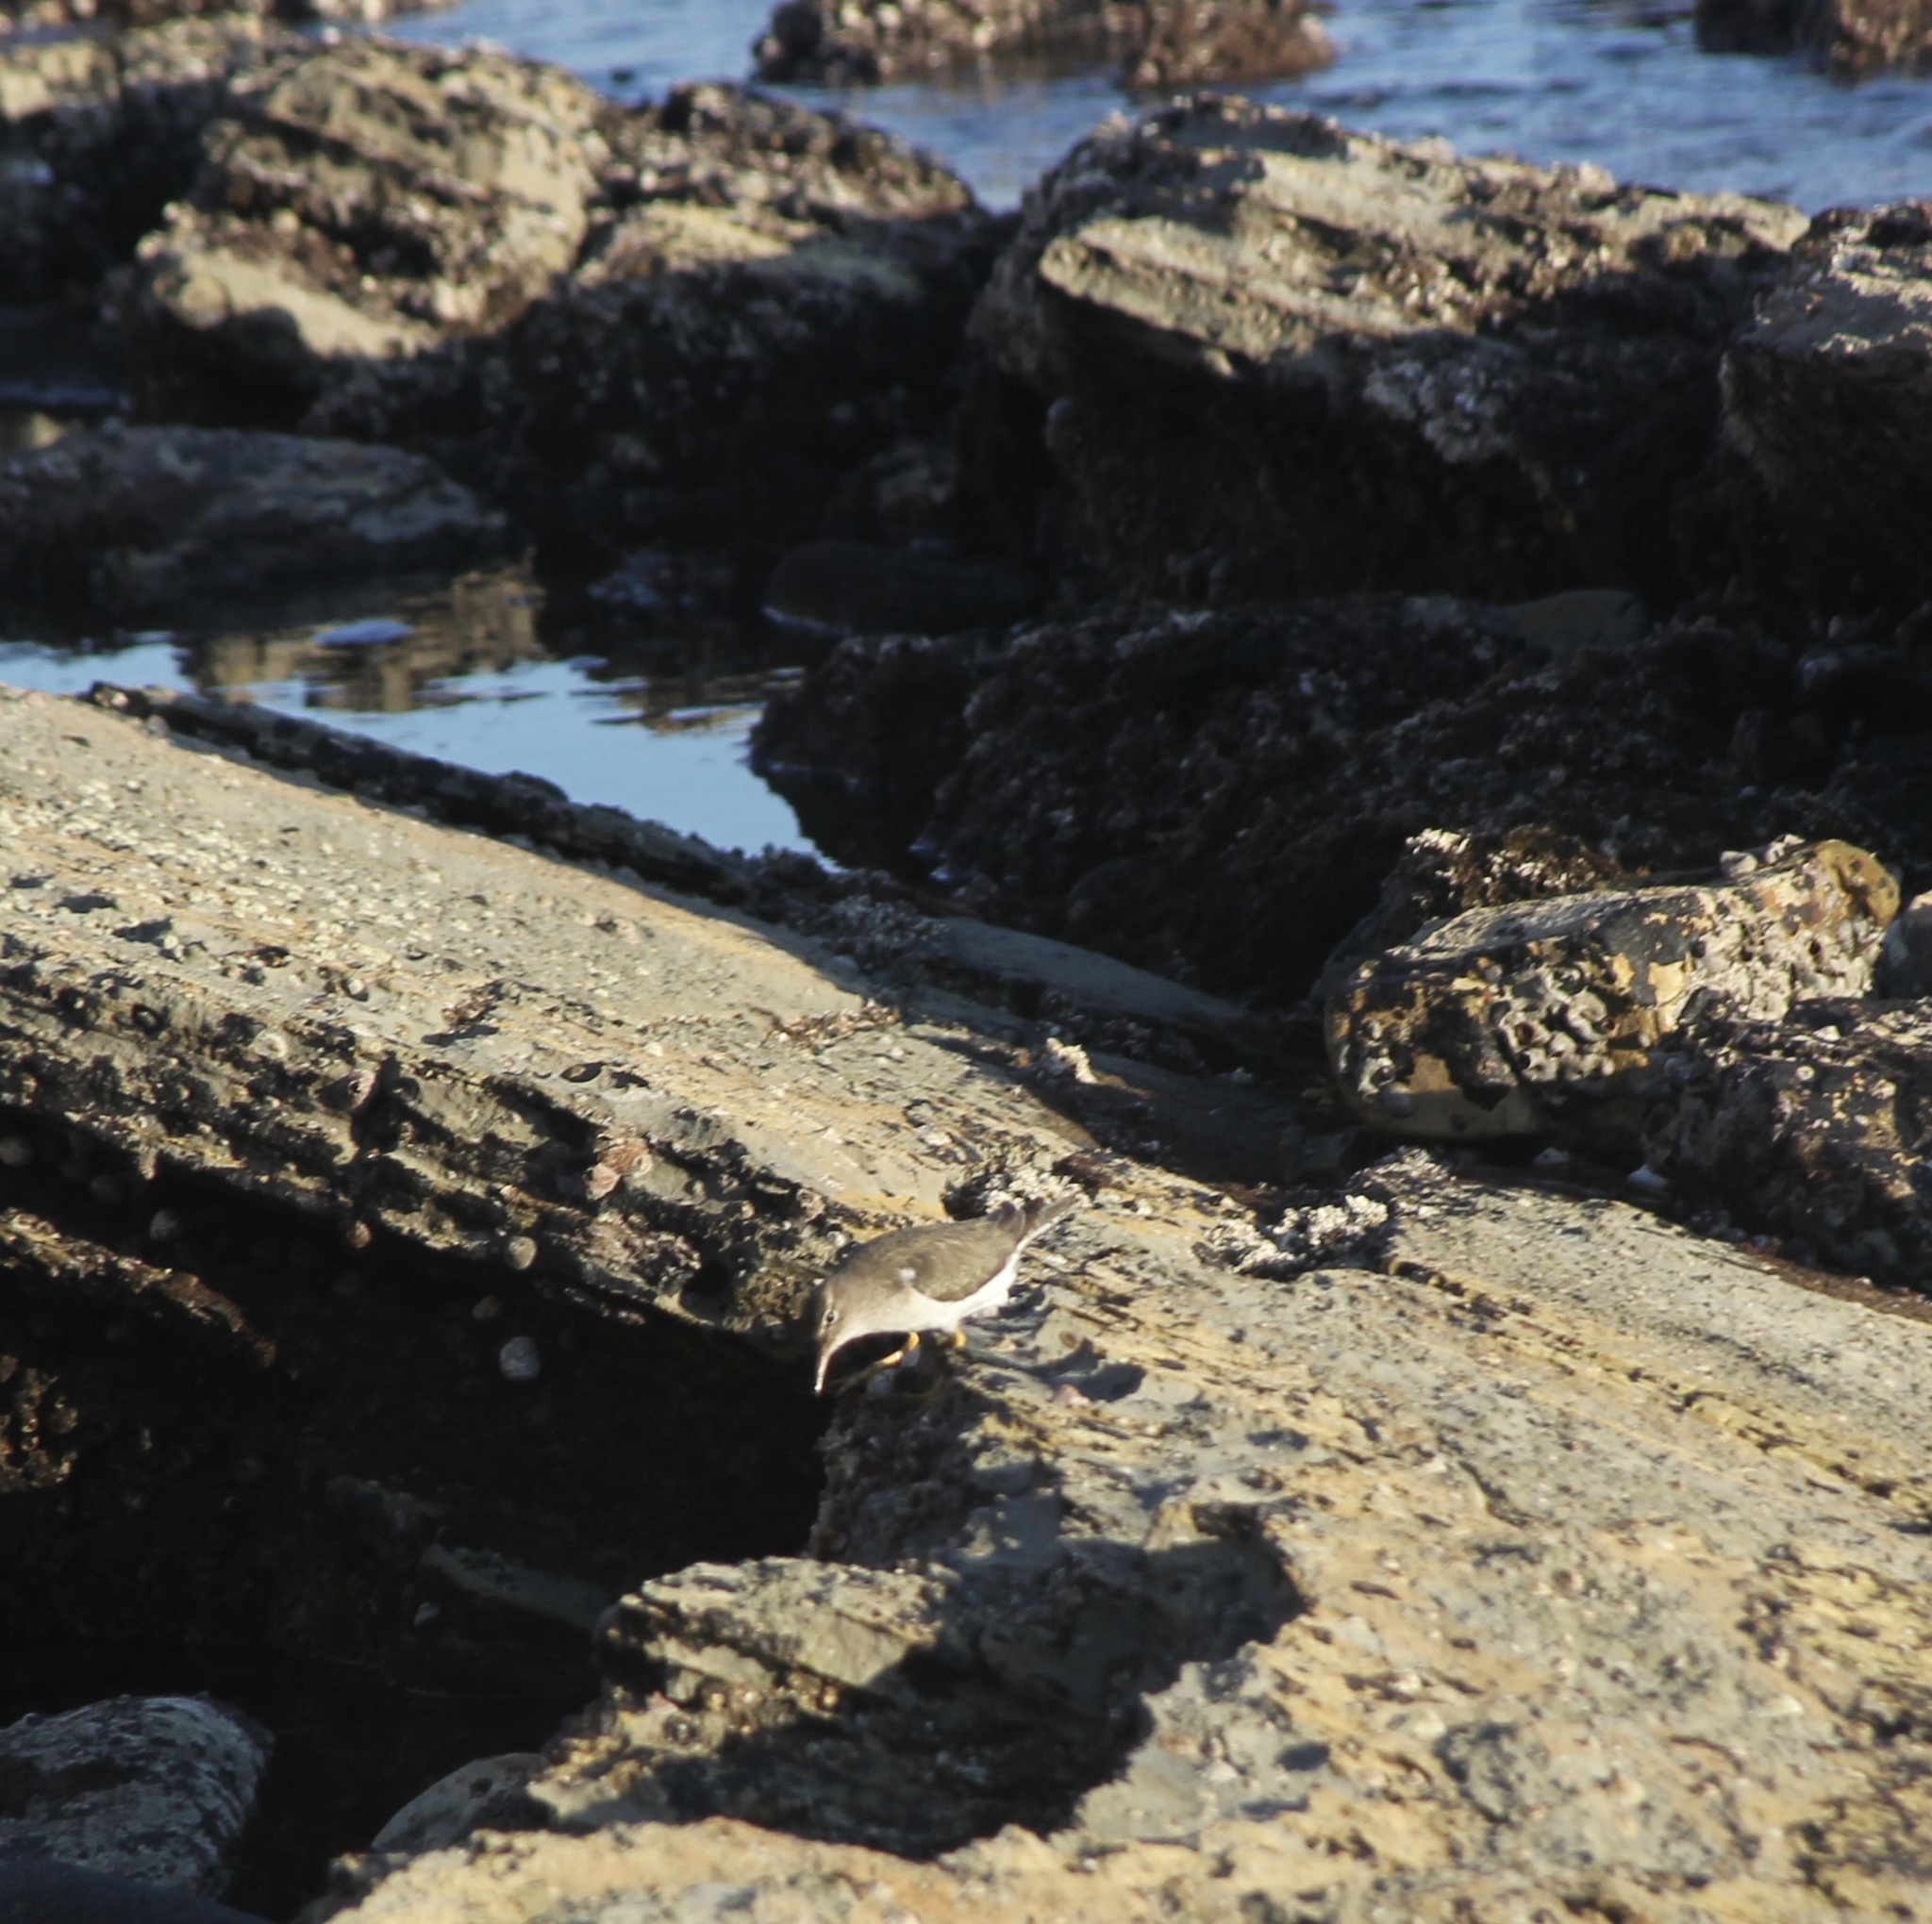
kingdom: Animalia
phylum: Chordata
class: Aves
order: Charadriiformes
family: Scolopacidae
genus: Actitis
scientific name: Actitis macularius
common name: Spotted sandpiper
